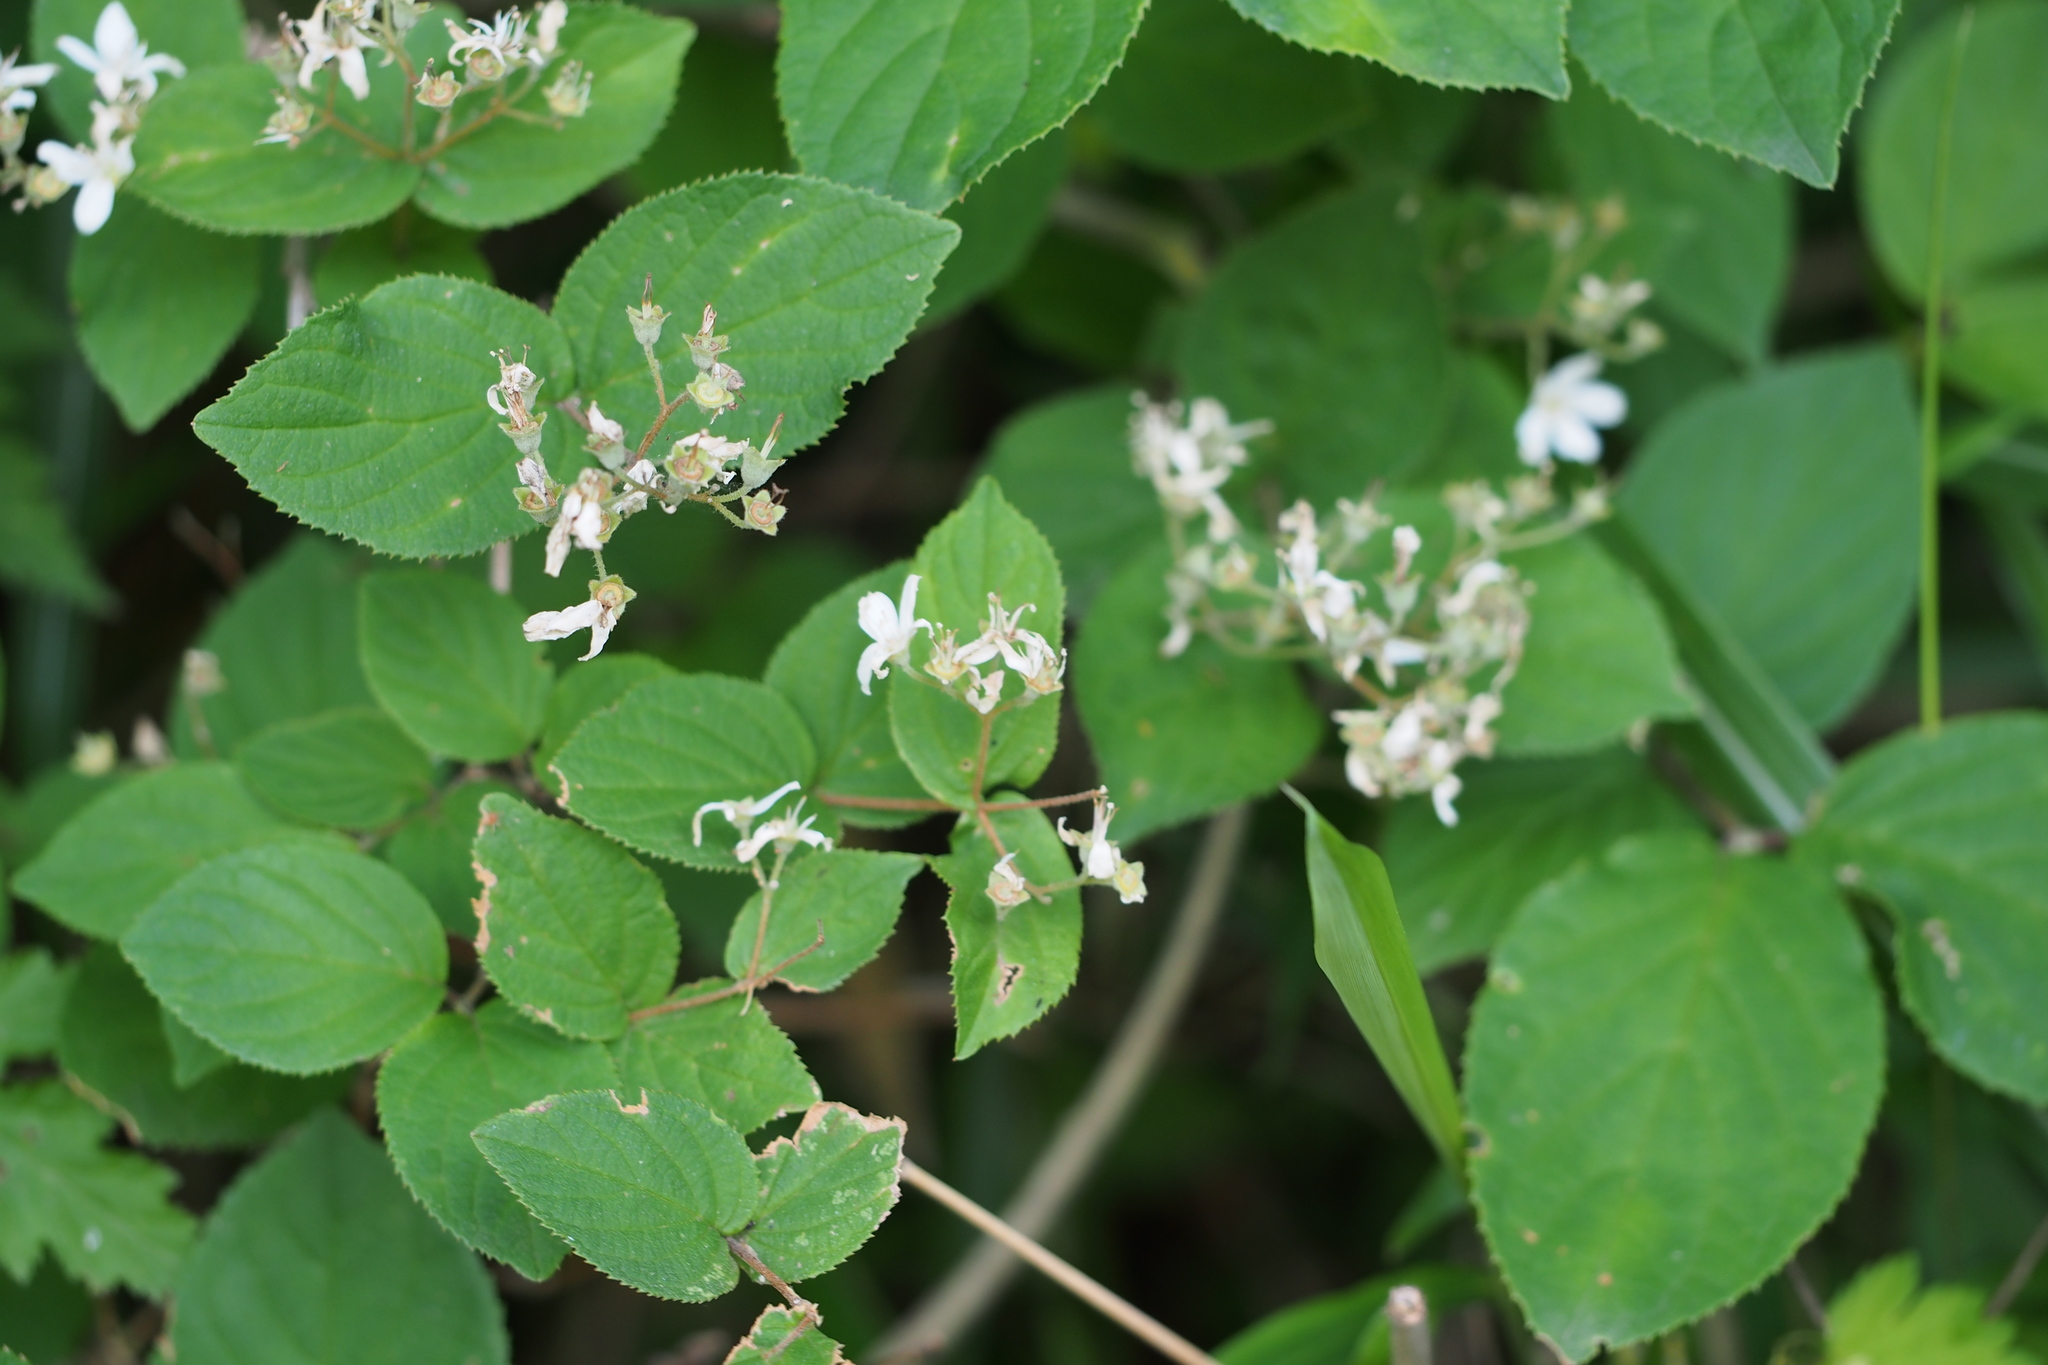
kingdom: Plantae
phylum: Tracheophyta
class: Magnoliopsida
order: Cornales
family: Hydrangeaceae
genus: Deutzia
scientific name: Deutzia scabra
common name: Deutzia
